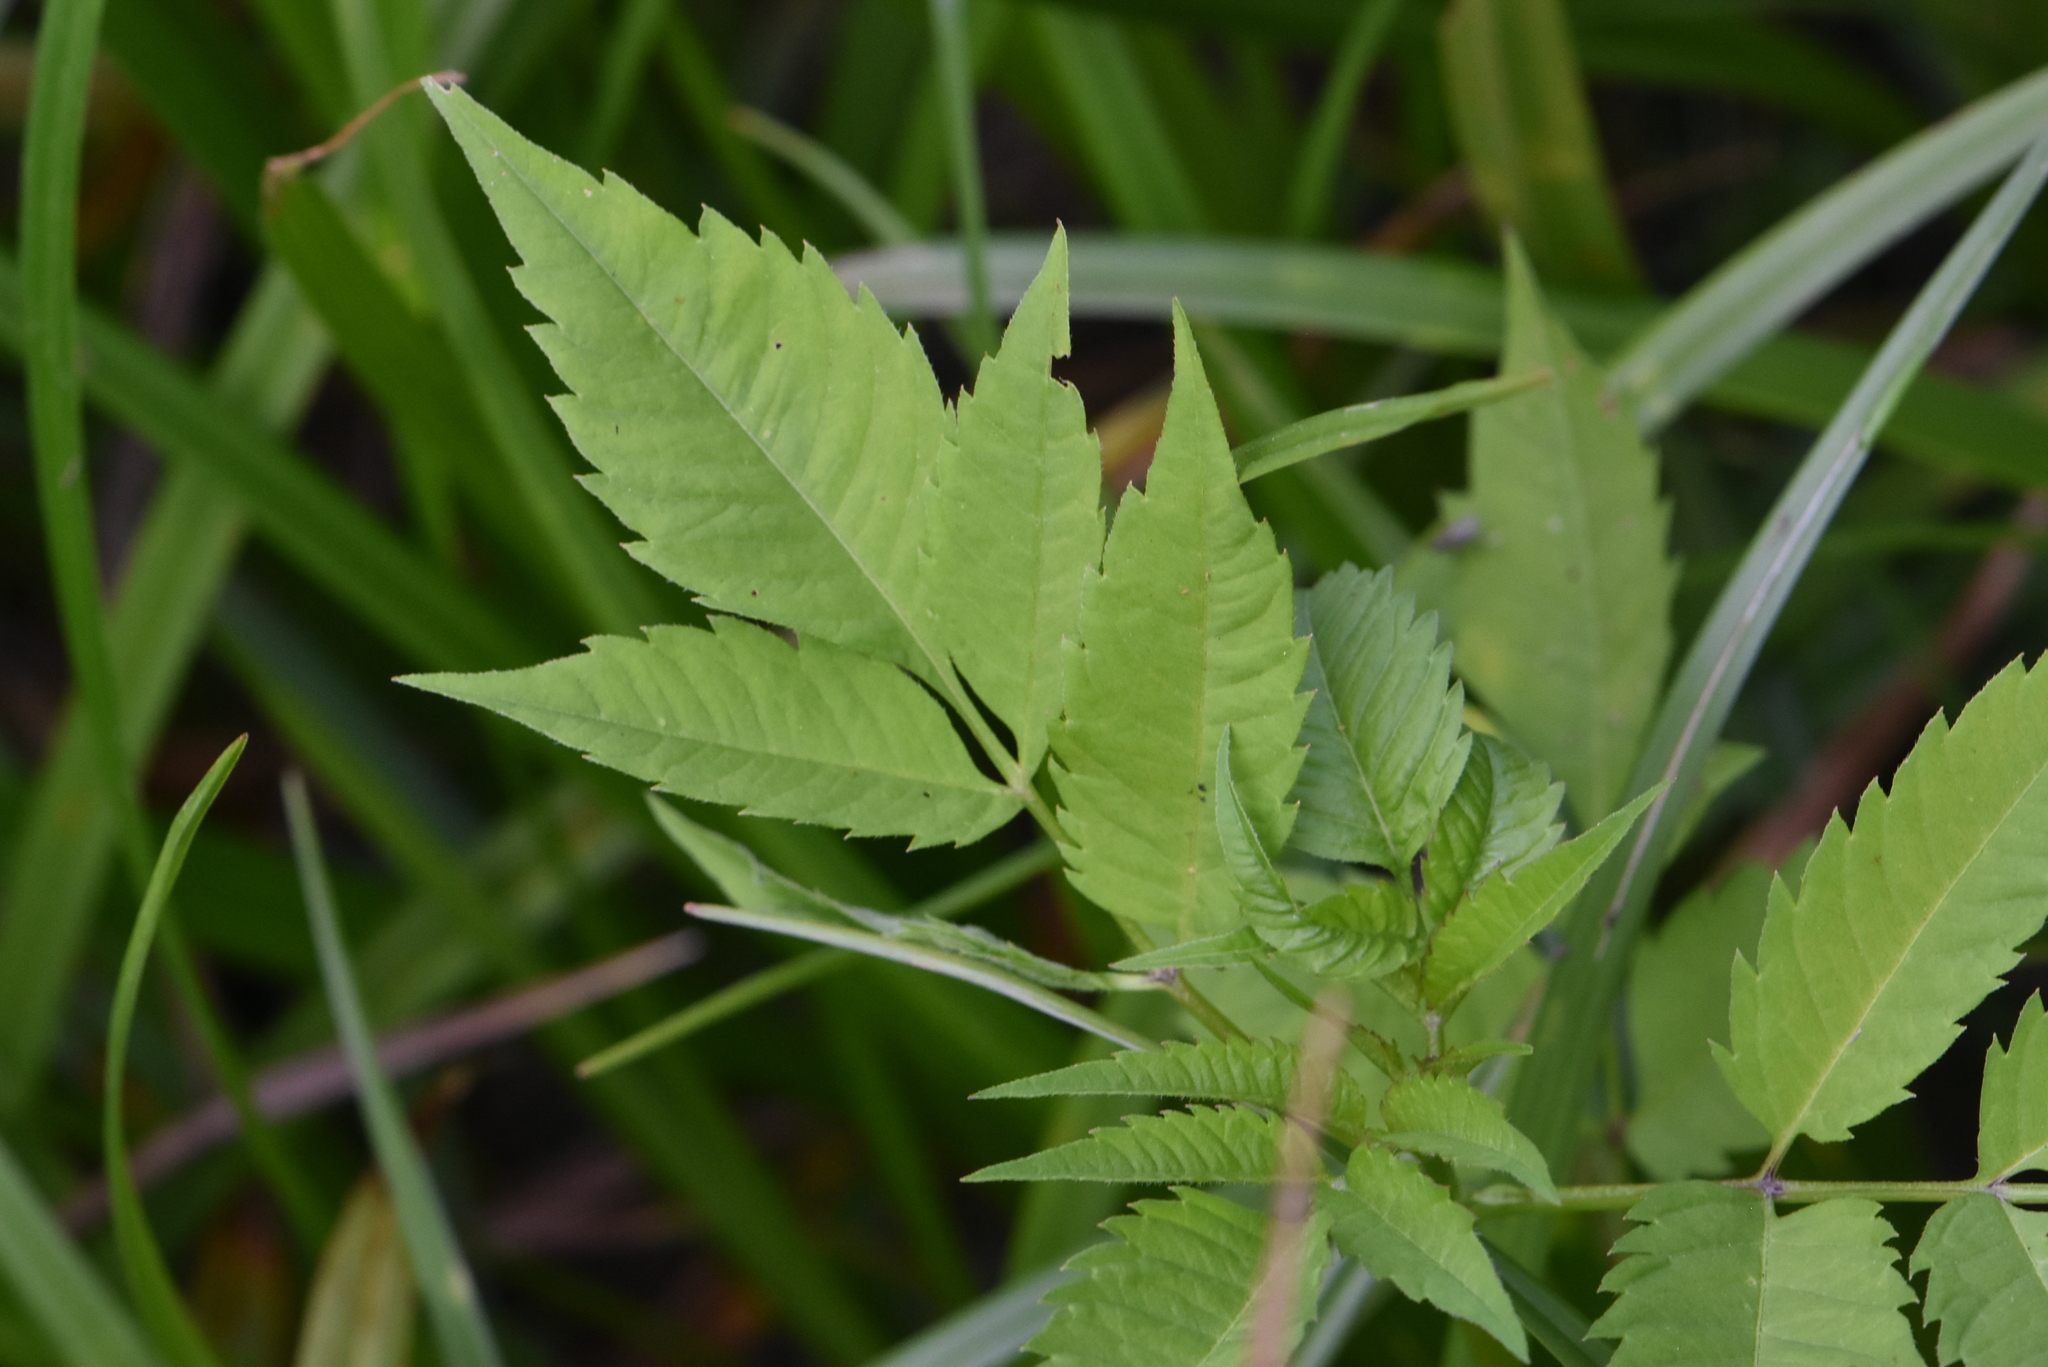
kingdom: Plantae
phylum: Tracheophyta
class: Magnoliopsida
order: Asterales
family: Asteraceae
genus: Bidens
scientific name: Bidens frondosa
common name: Beggarticks
